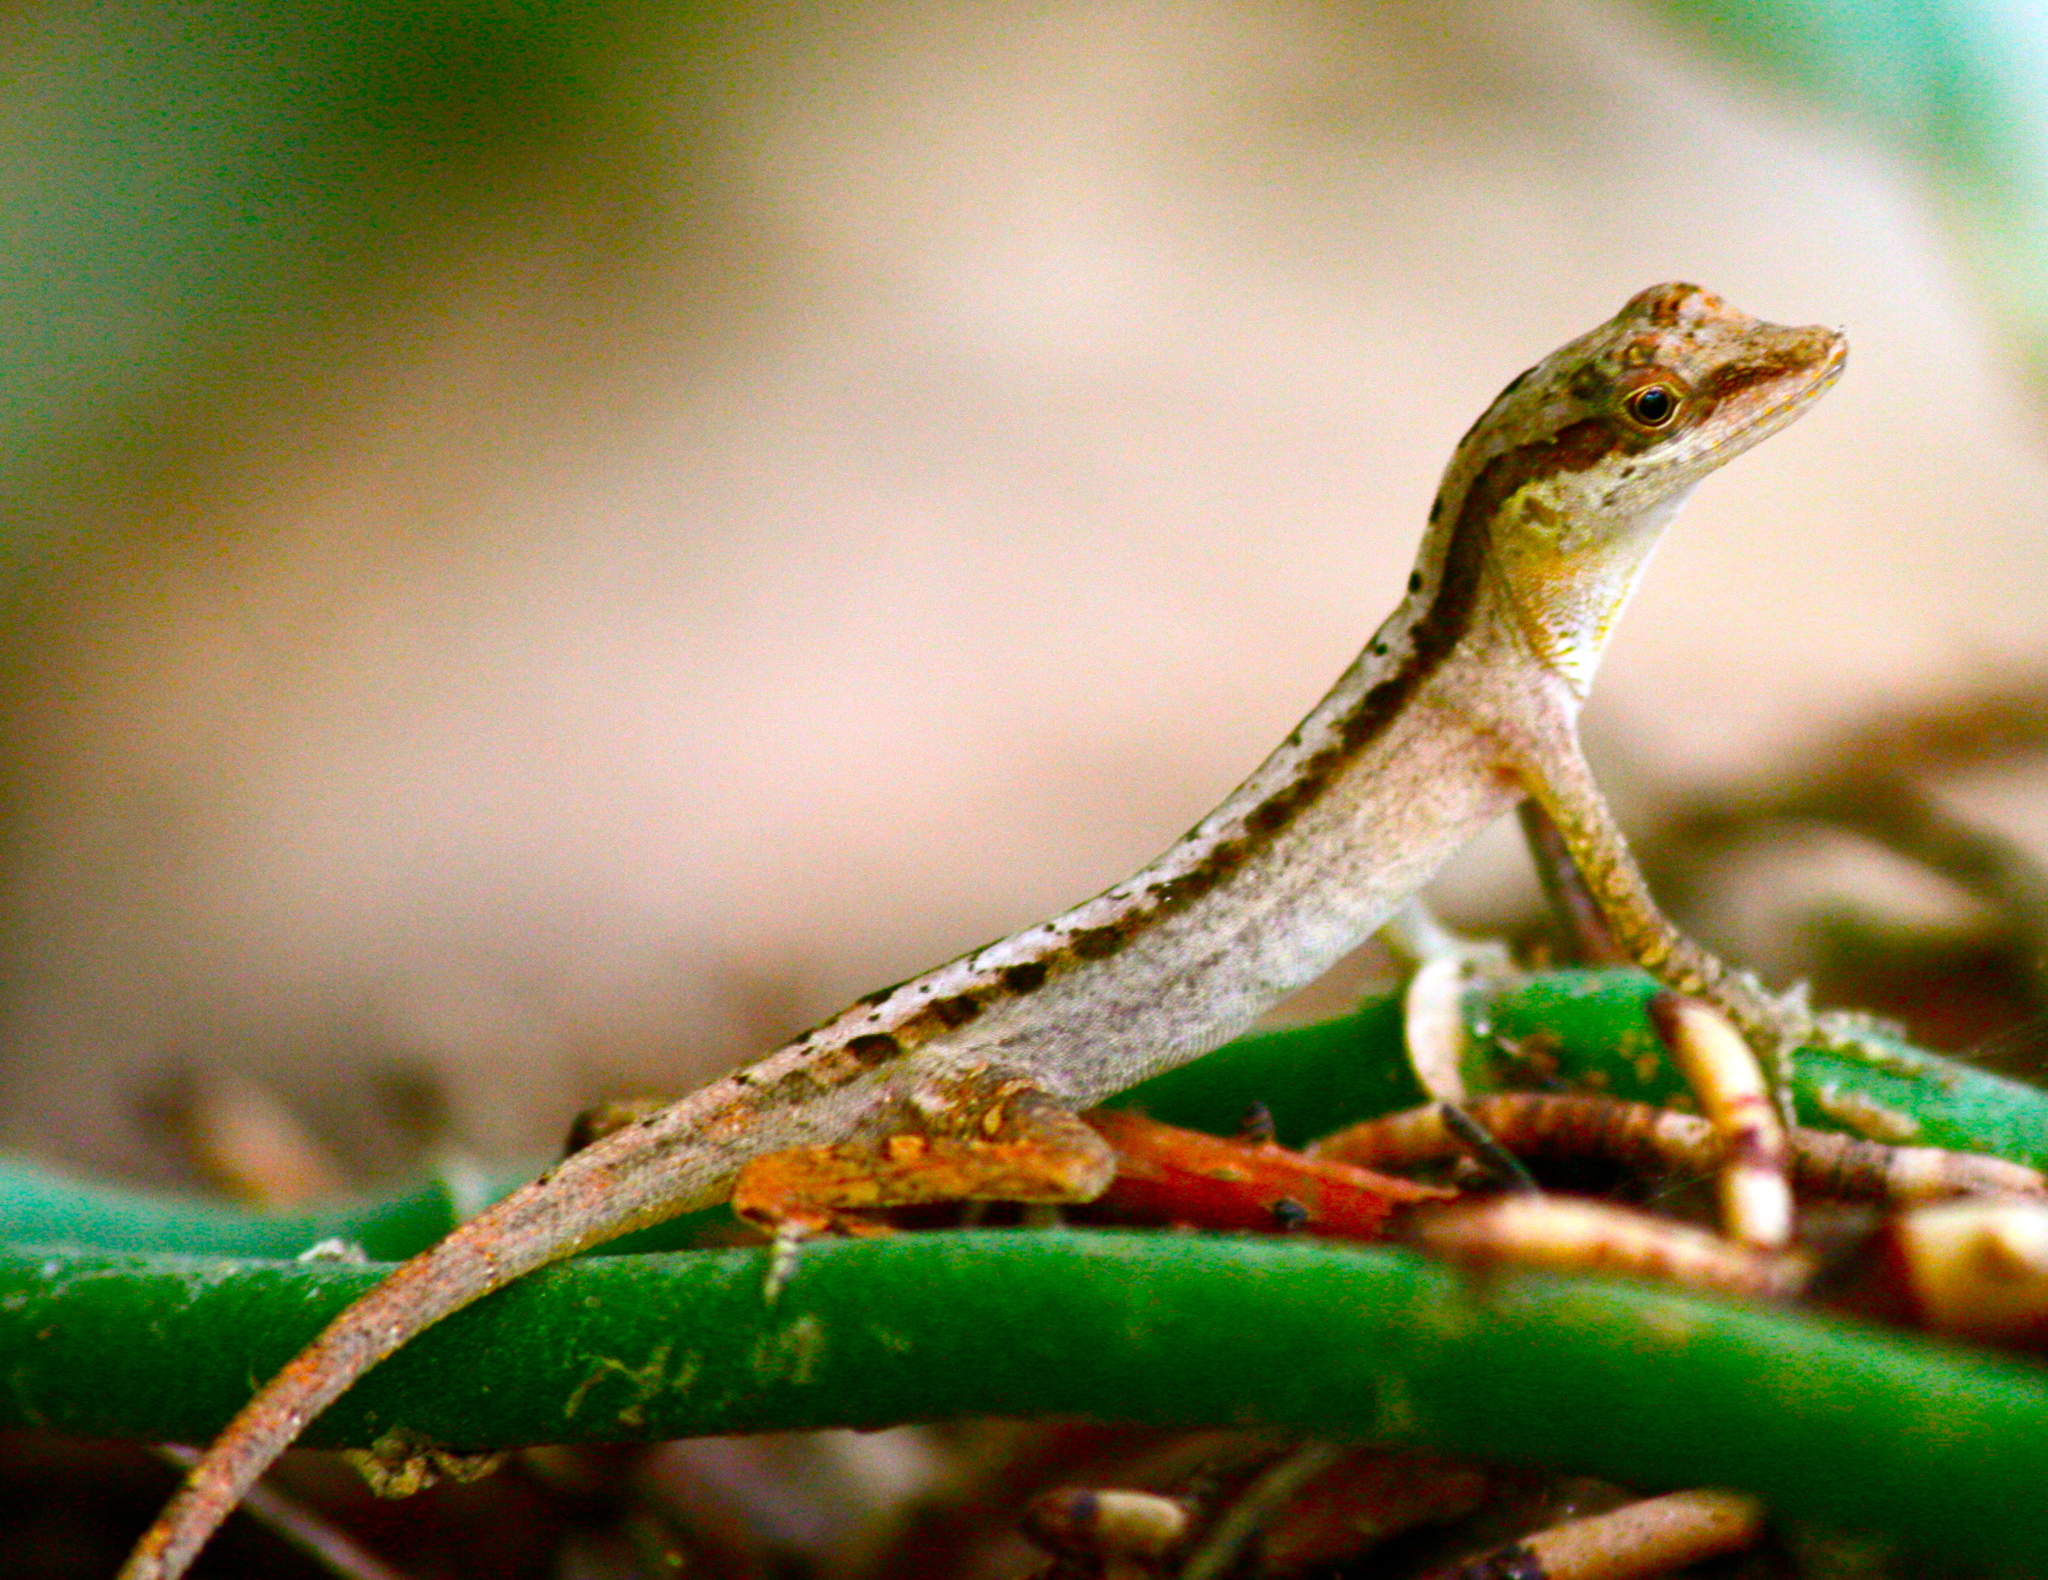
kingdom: Animalia
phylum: Chordata
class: Squamata
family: Dactyloidae
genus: Anolis
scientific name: Anolis gaigei
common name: Gaige’s anole
